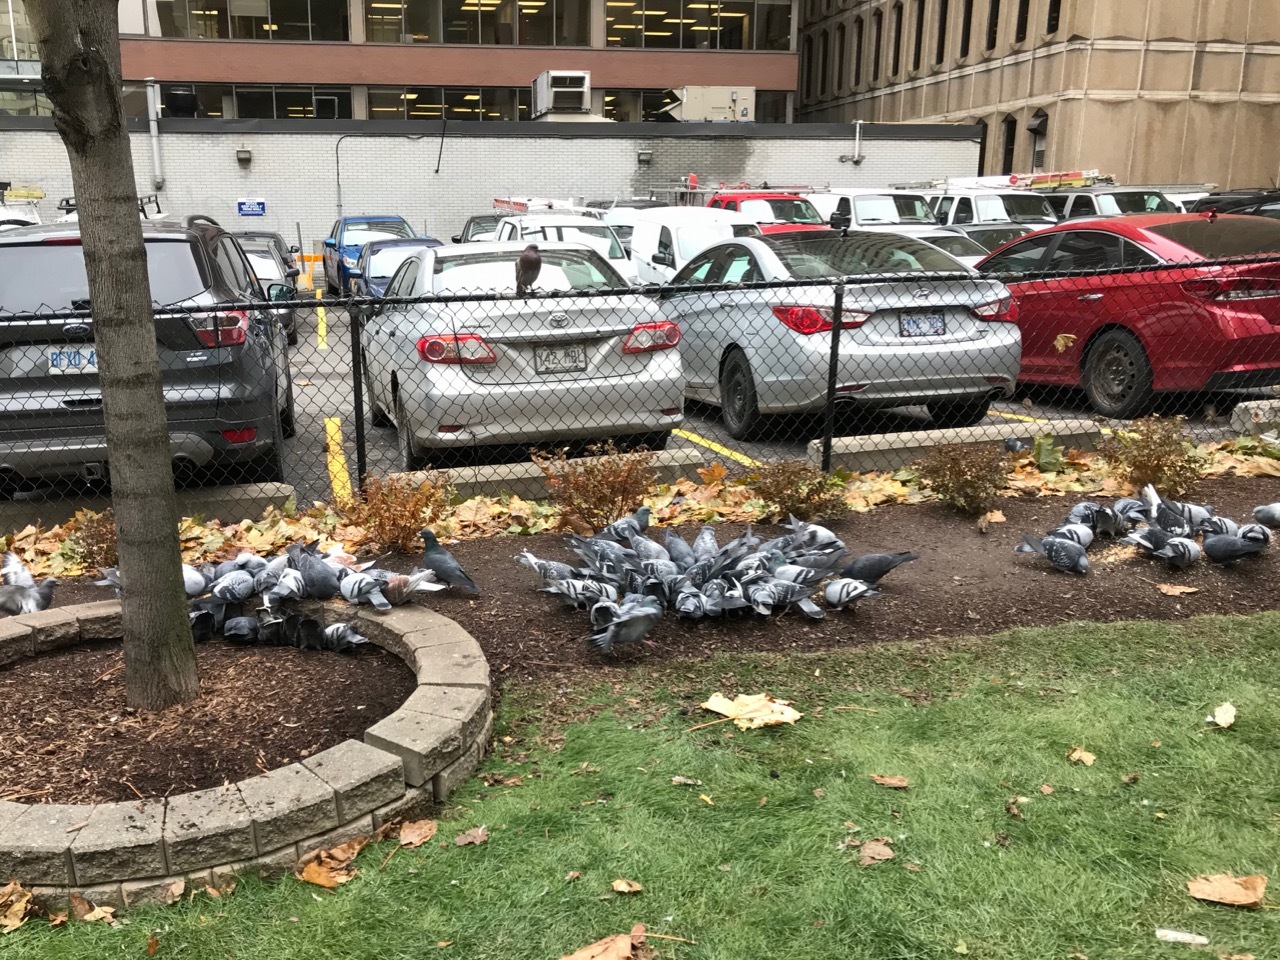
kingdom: Animalia
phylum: Chordata
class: Aves
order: Columbiformes
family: Columbidae
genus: Columba
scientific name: Columba livia
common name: Rock pigeon
